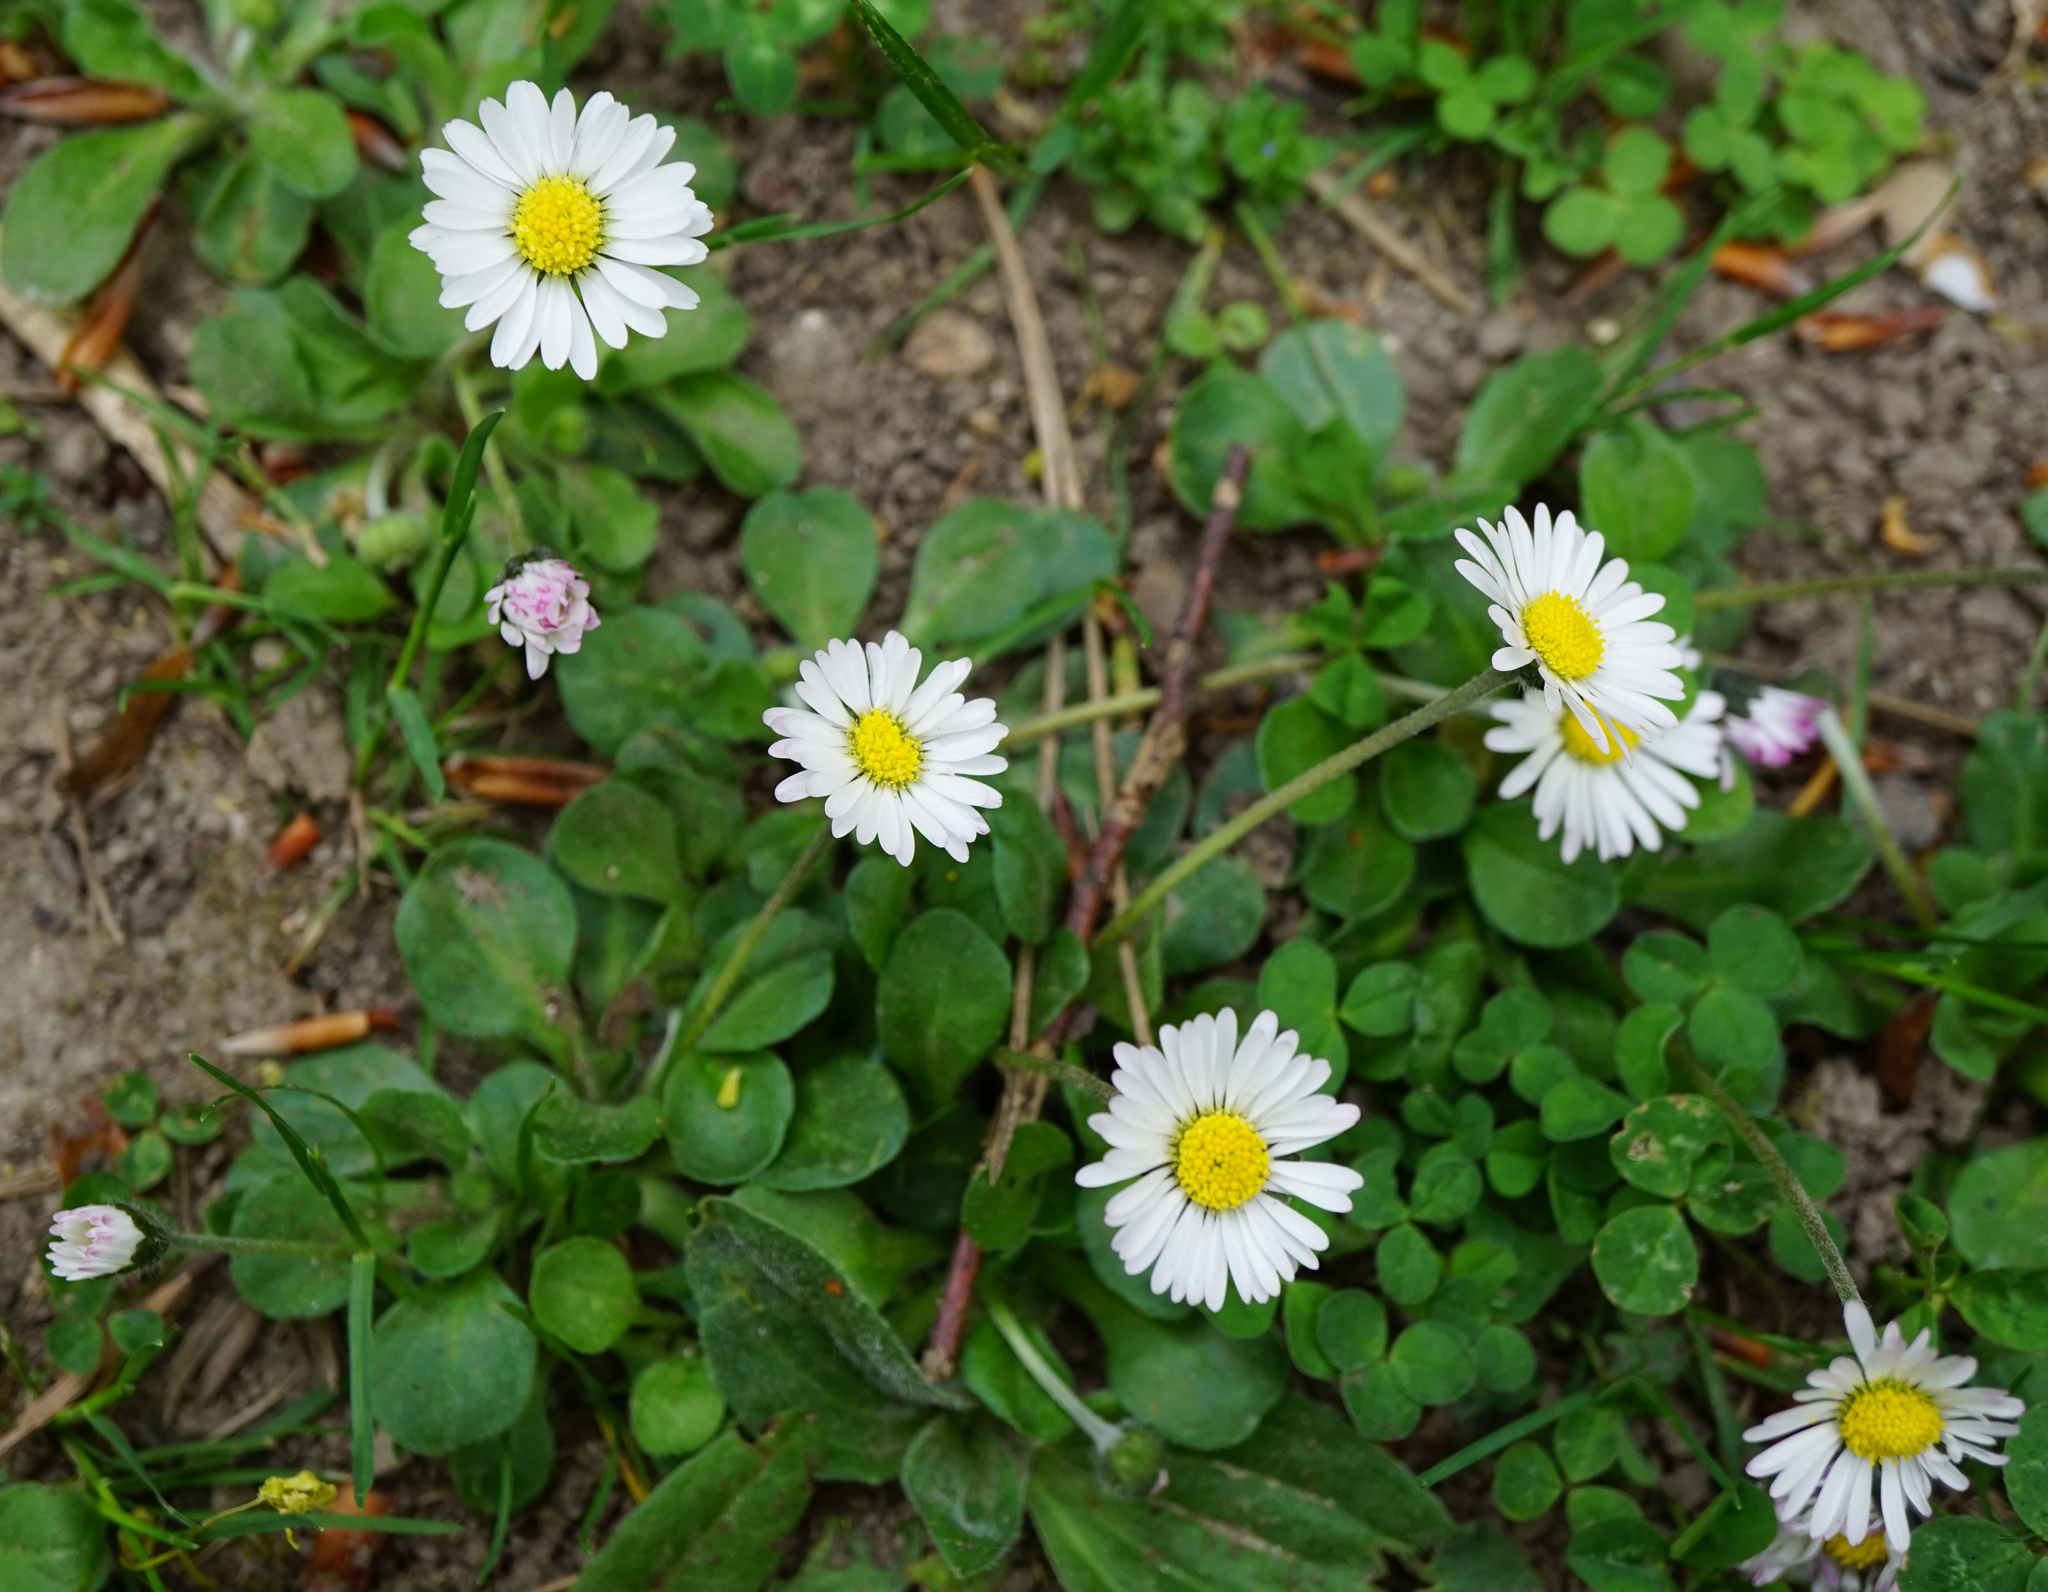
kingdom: Plantae
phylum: Tracheophyta
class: Magnoliopsida
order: Asterales
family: Asteraceae
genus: Bellis
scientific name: Bellis perennis
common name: Lawndaisy
